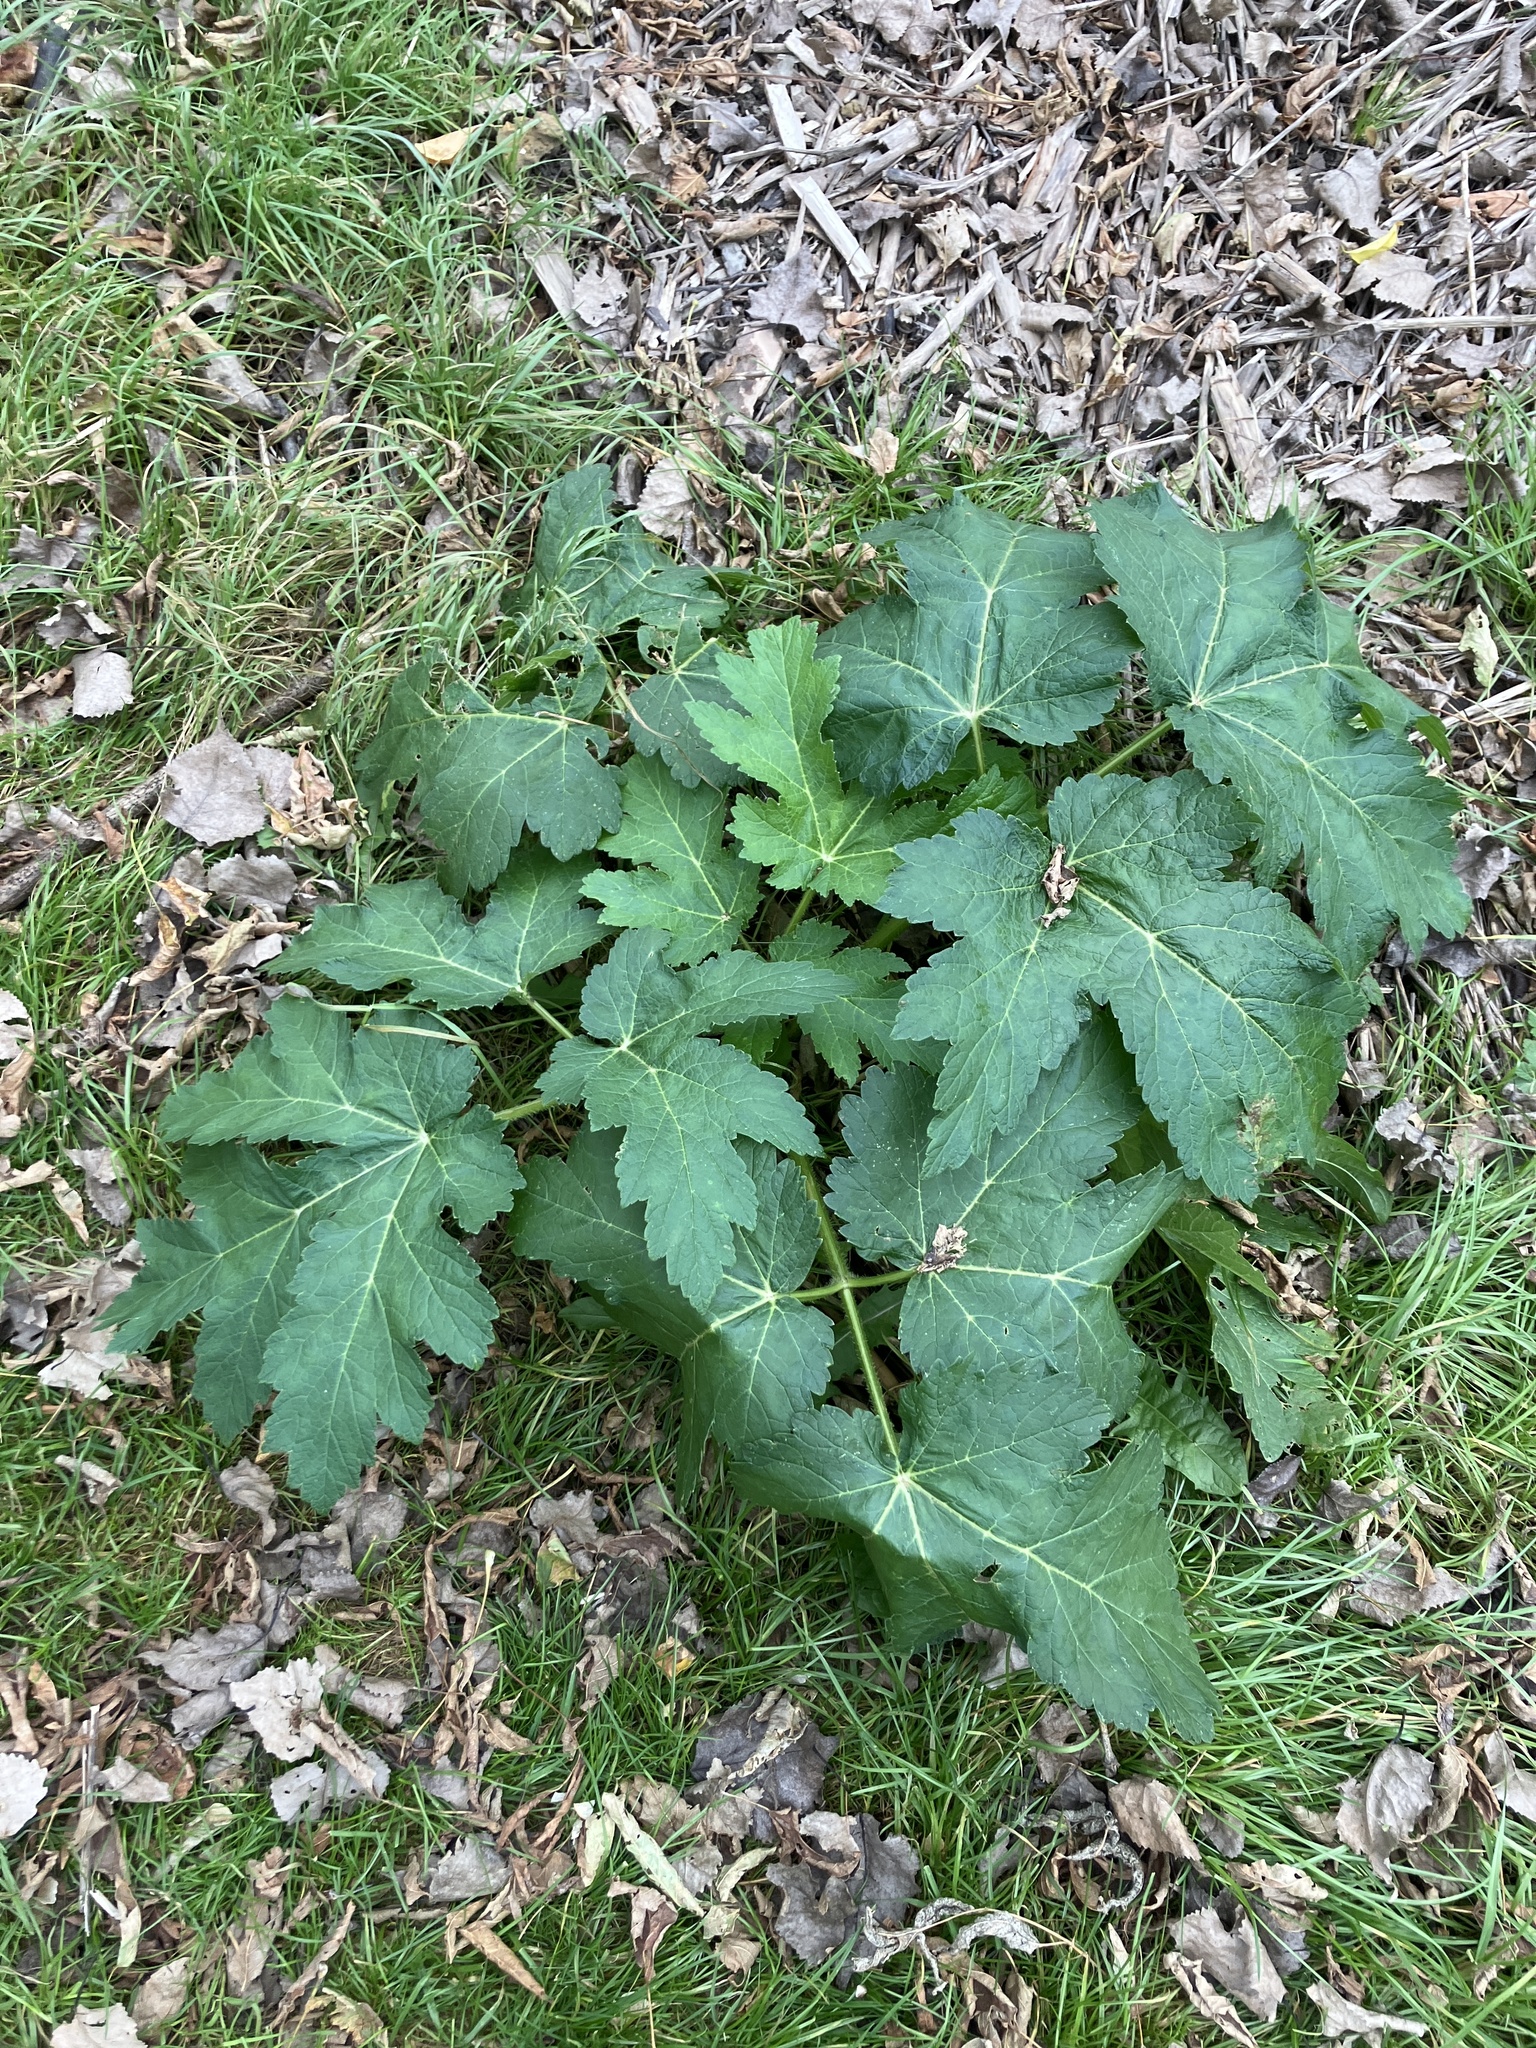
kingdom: Plantae
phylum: Tracheophyta
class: Magnoliopsida
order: Apiales
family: Apiaceae
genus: Heracleum
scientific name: Heracleum maximum
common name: American cow parsnip
